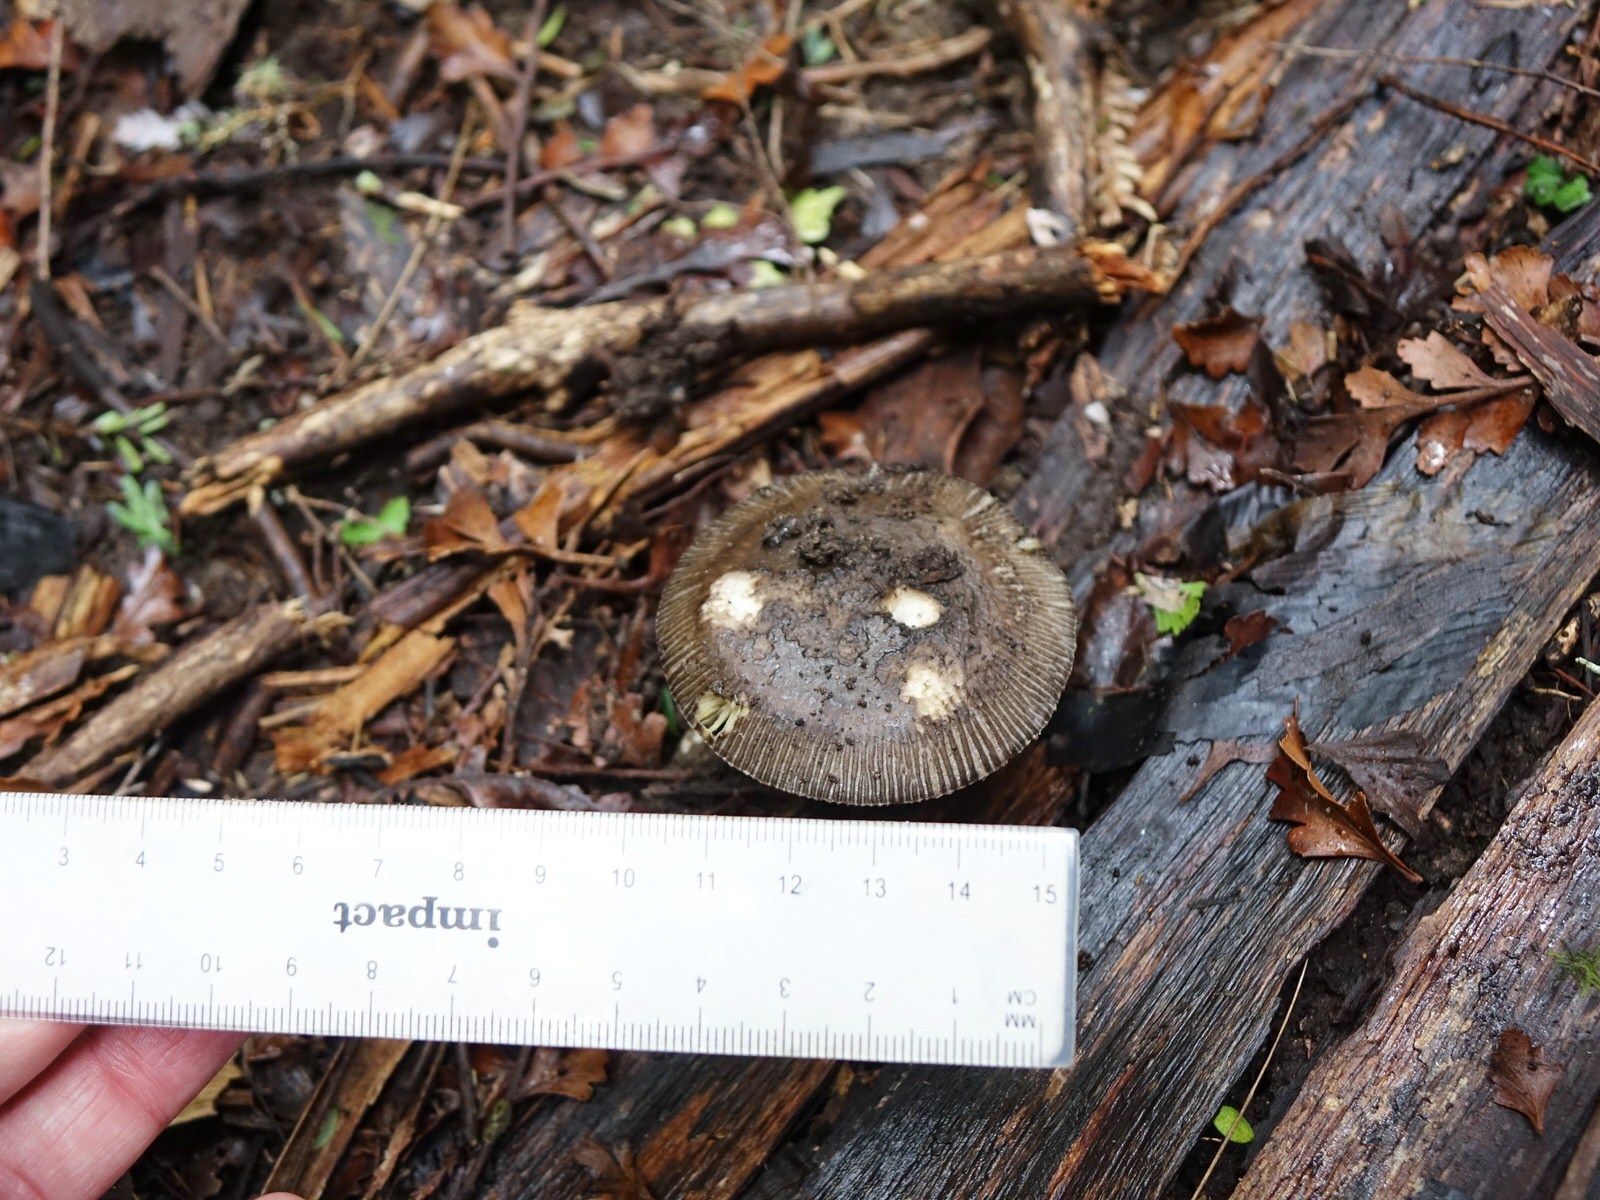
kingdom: Fungi
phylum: Basidiomycota
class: Agaricomycetes
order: Agaricales
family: Amanitaceae
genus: Amanita
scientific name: Amanita pekeoides
